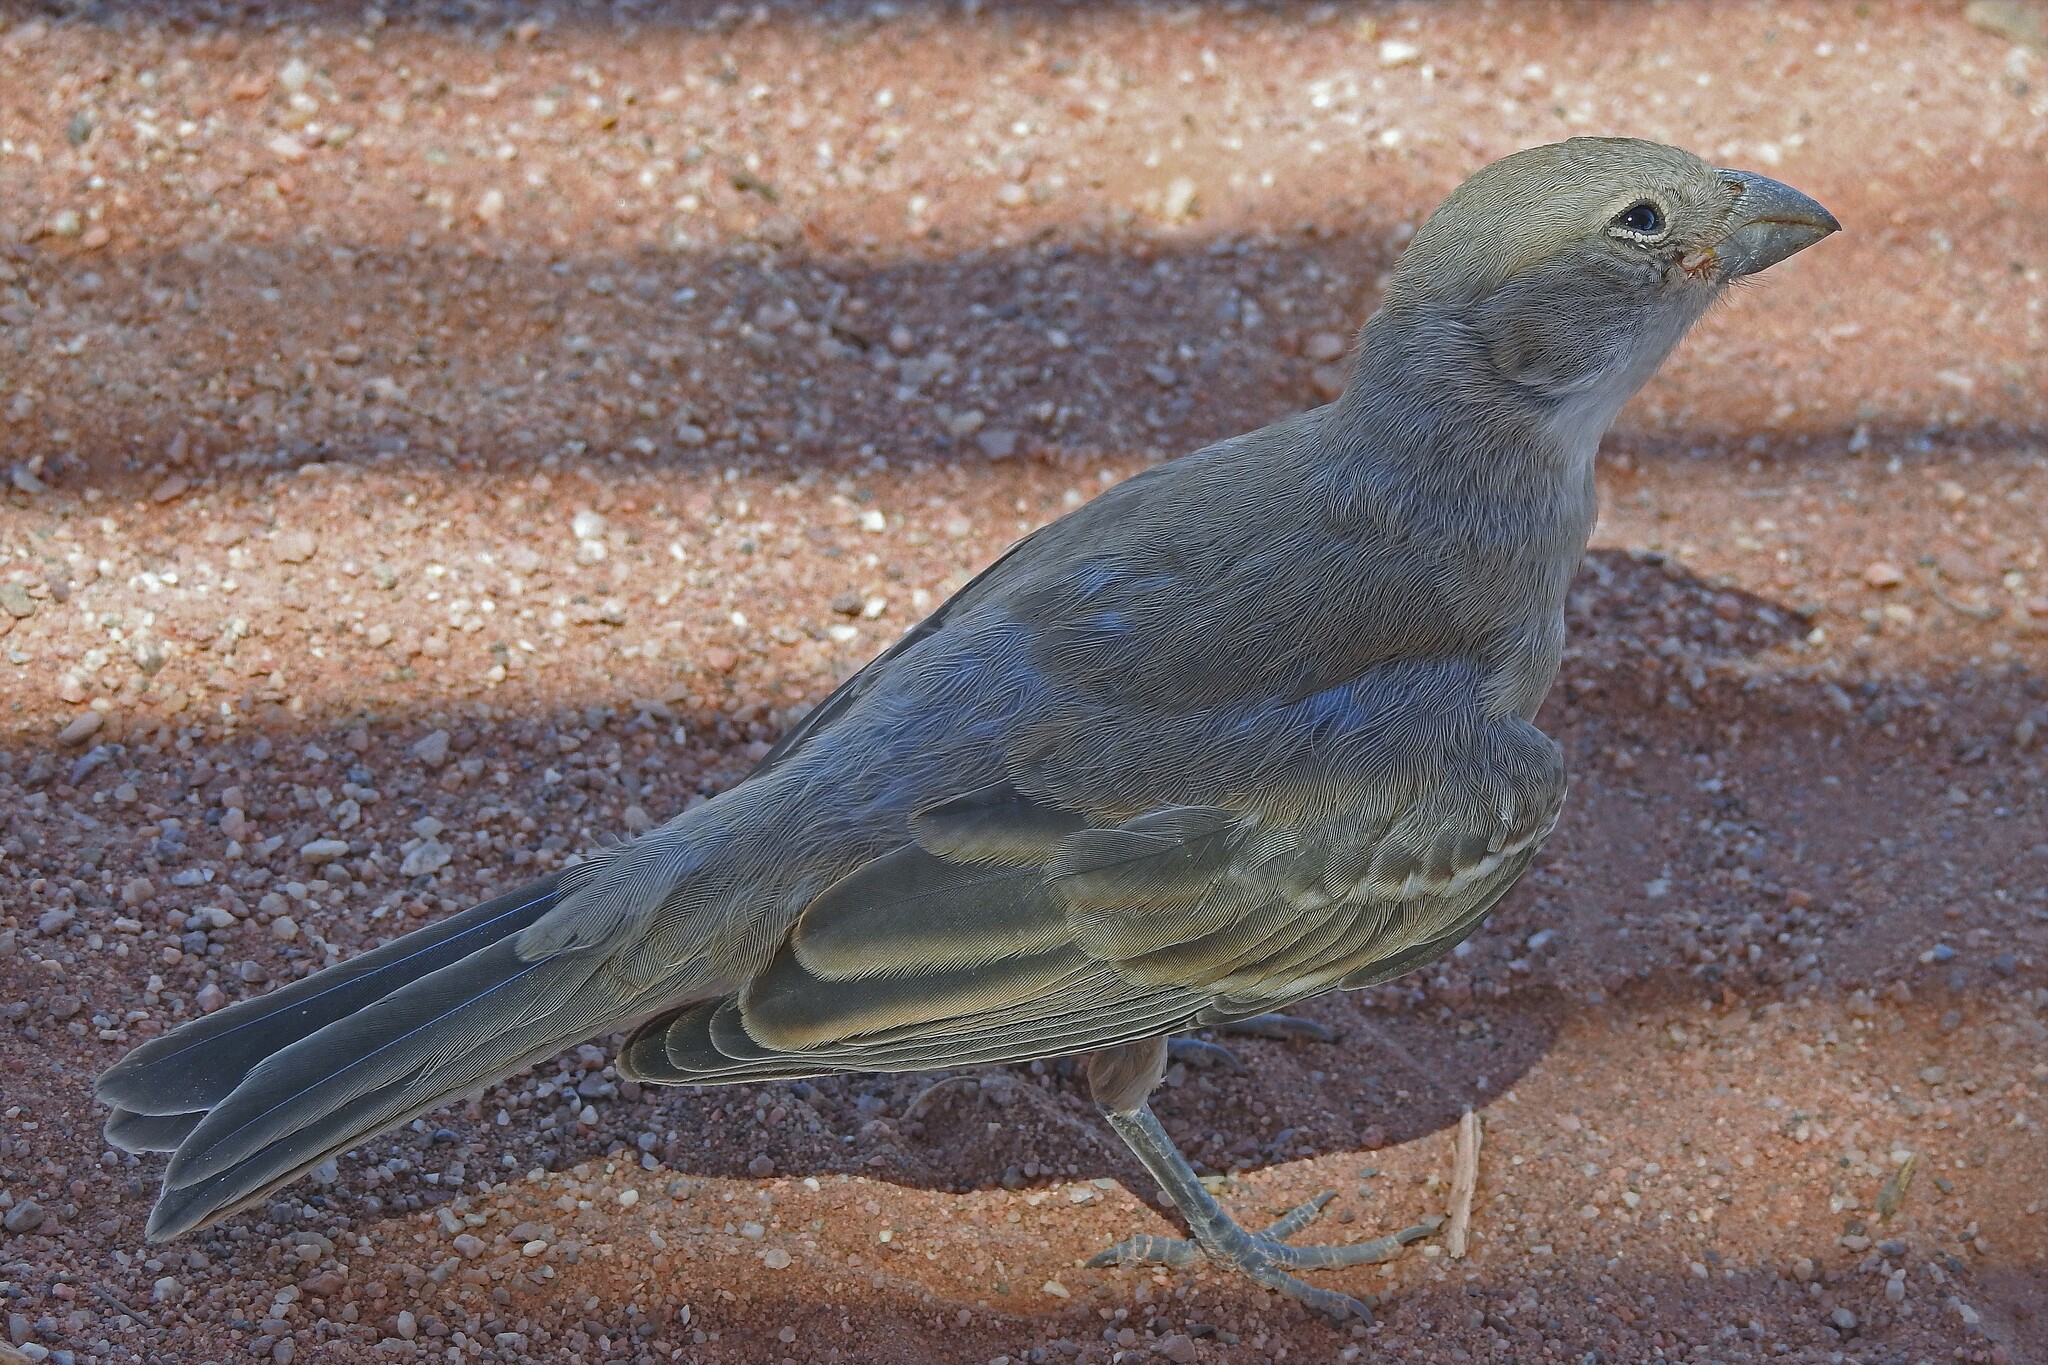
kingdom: Animalia
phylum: Chordata
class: Aves
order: Passeriformes
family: Thraupidae
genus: Diuca
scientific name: Diuca diuca
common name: Common diuca finch
